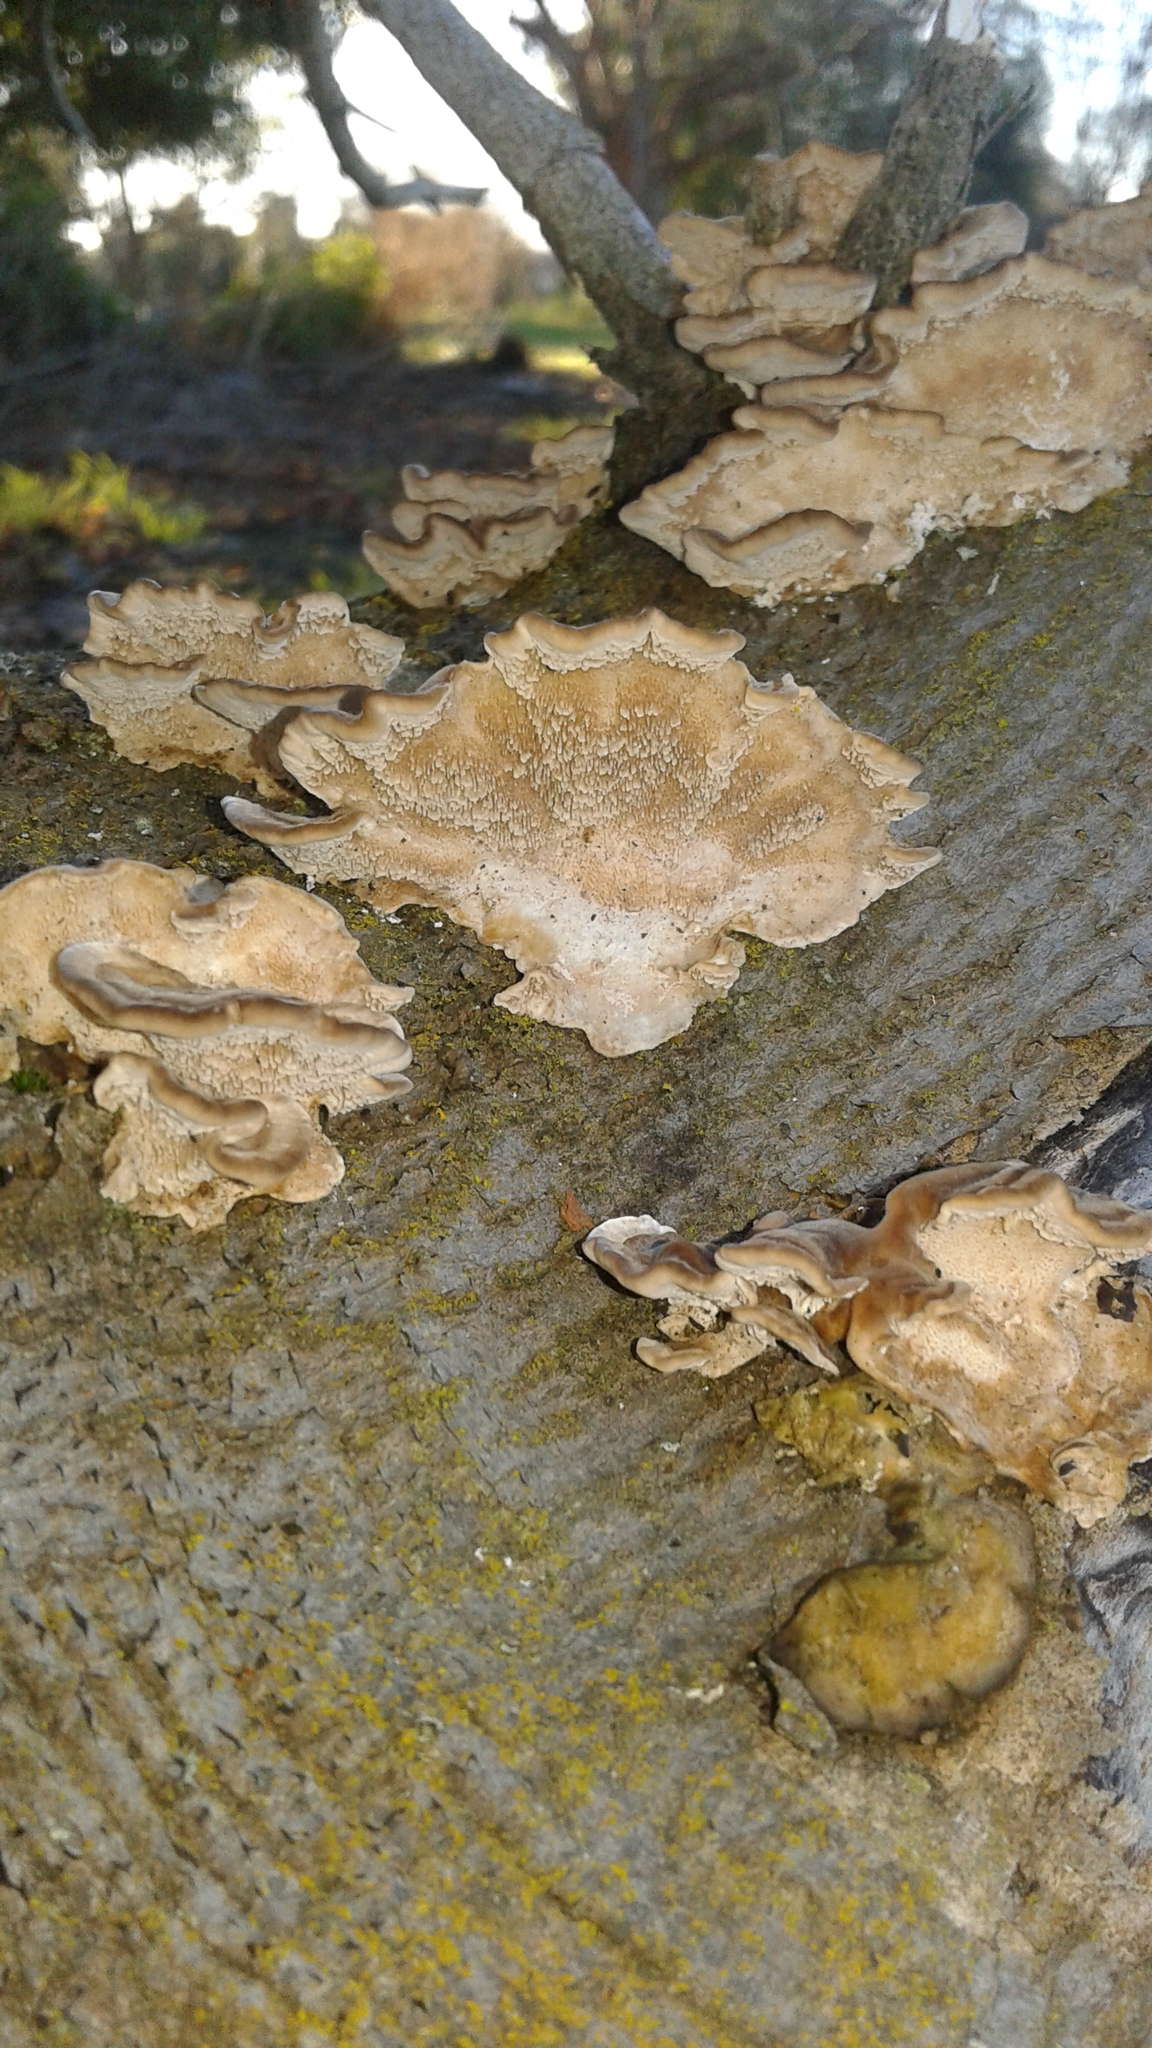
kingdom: Fungi
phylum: Basidiomycota
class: Agaricomycetes
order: Polyporales
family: Polyporaceae
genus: Trametes
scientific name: Trametes versicolor
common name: Turkeytail
